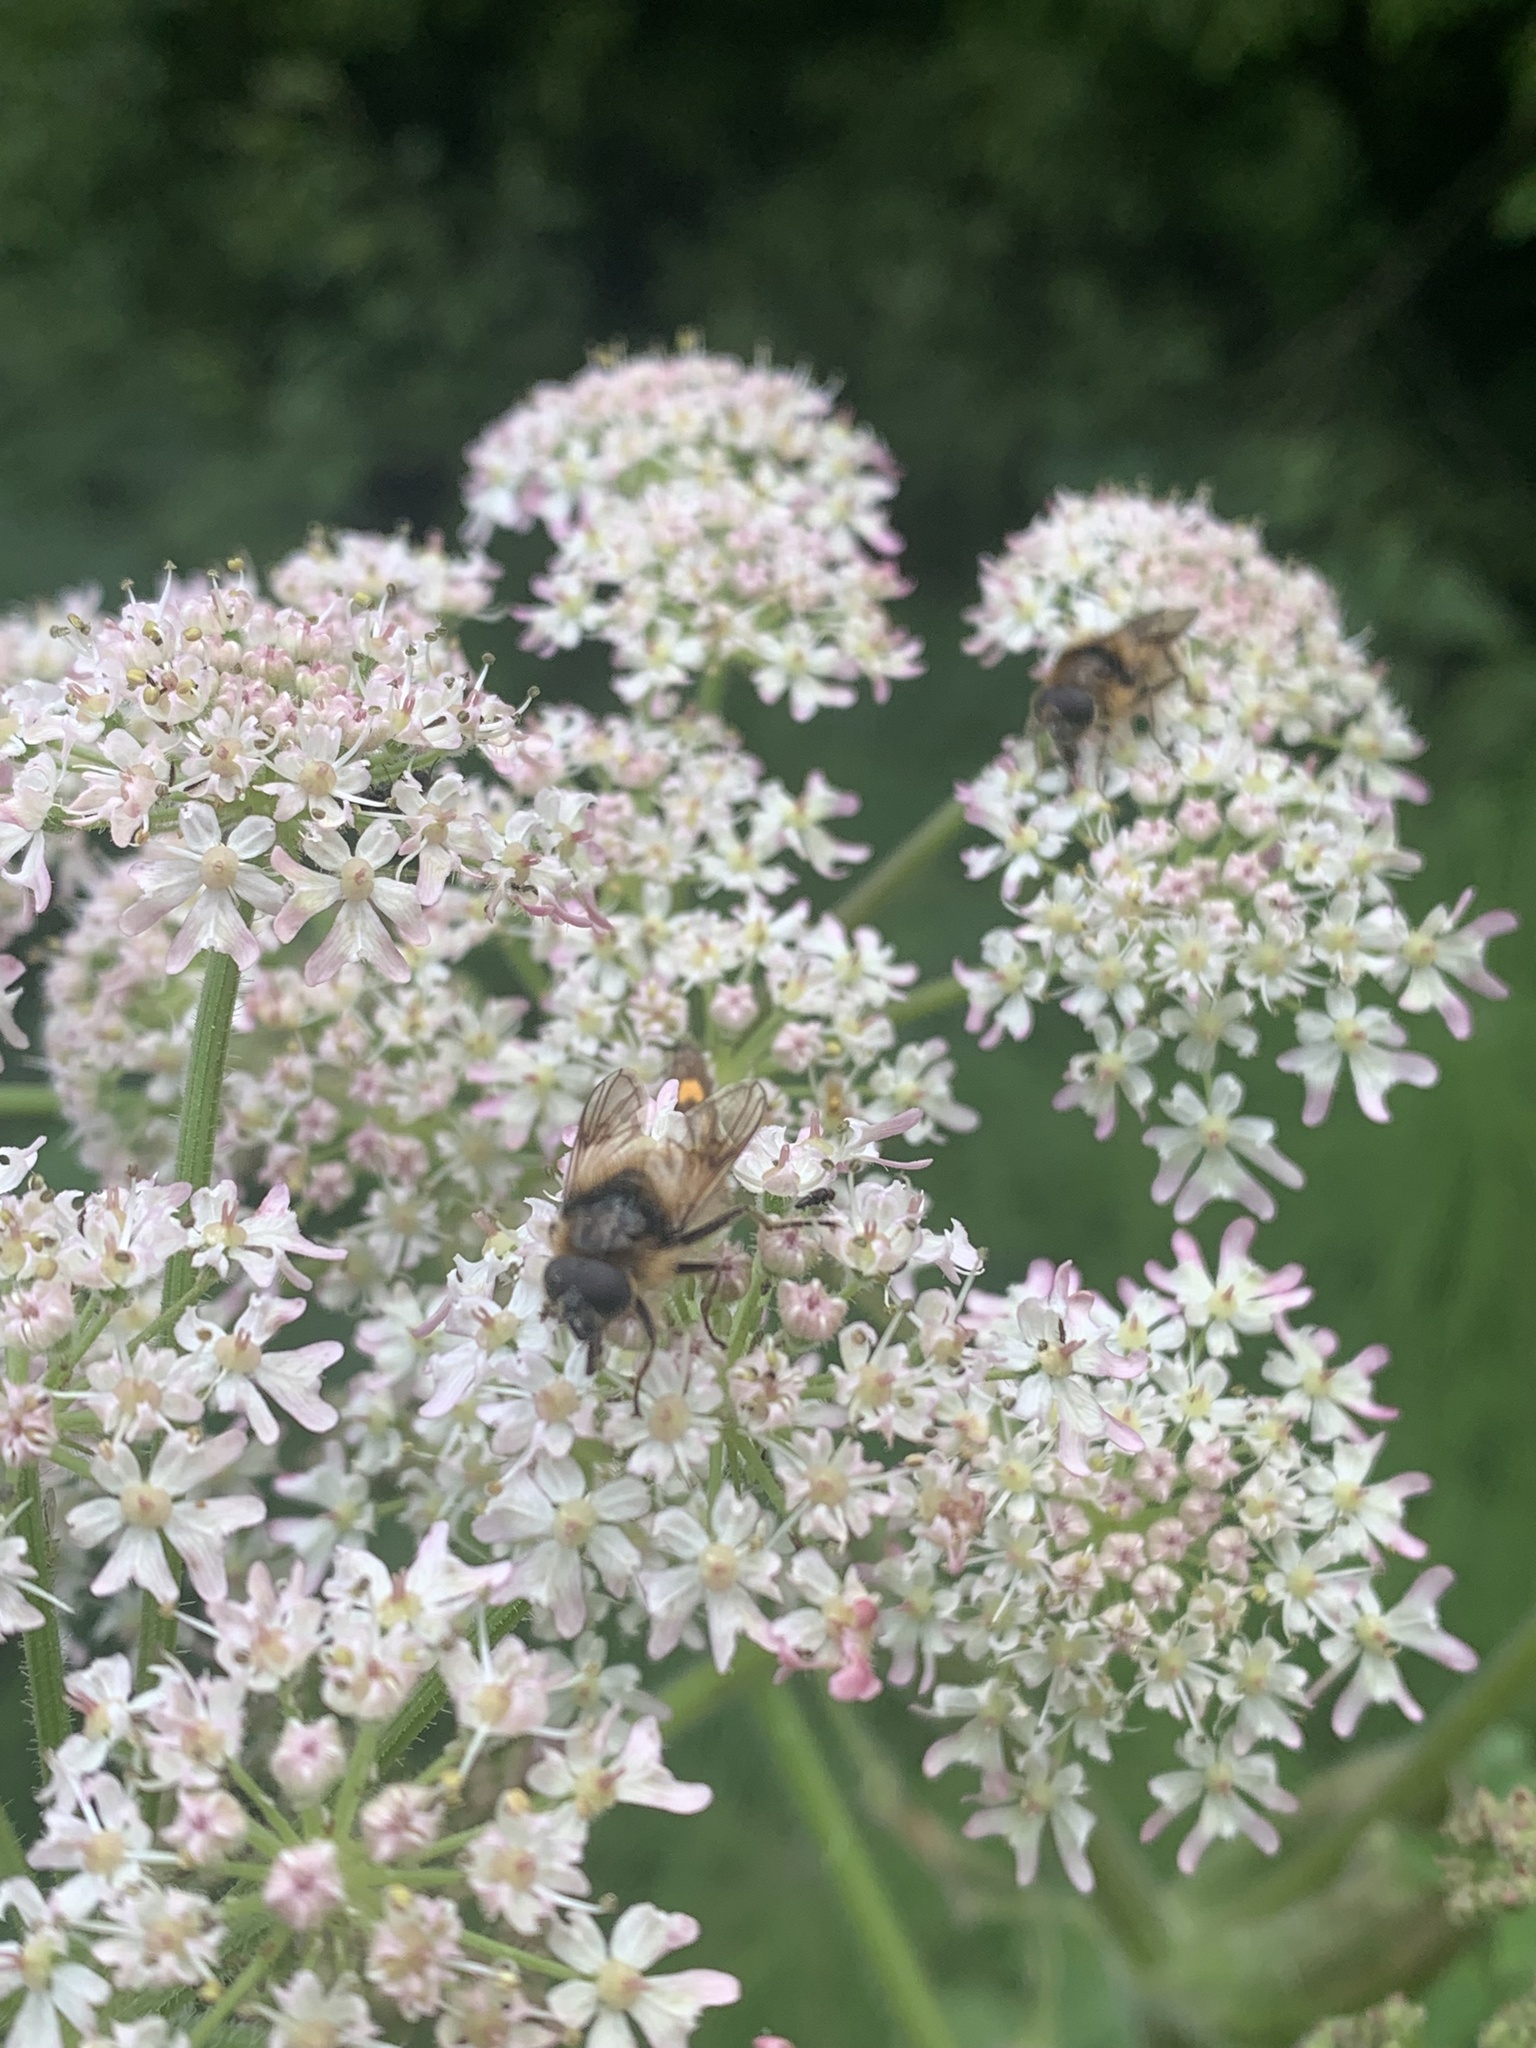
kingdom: Animalia
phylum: Arthropoda
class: Insecta
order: Diptera
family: Syrphidae
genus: Cheilosia
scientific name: Cheilosia illustrata
